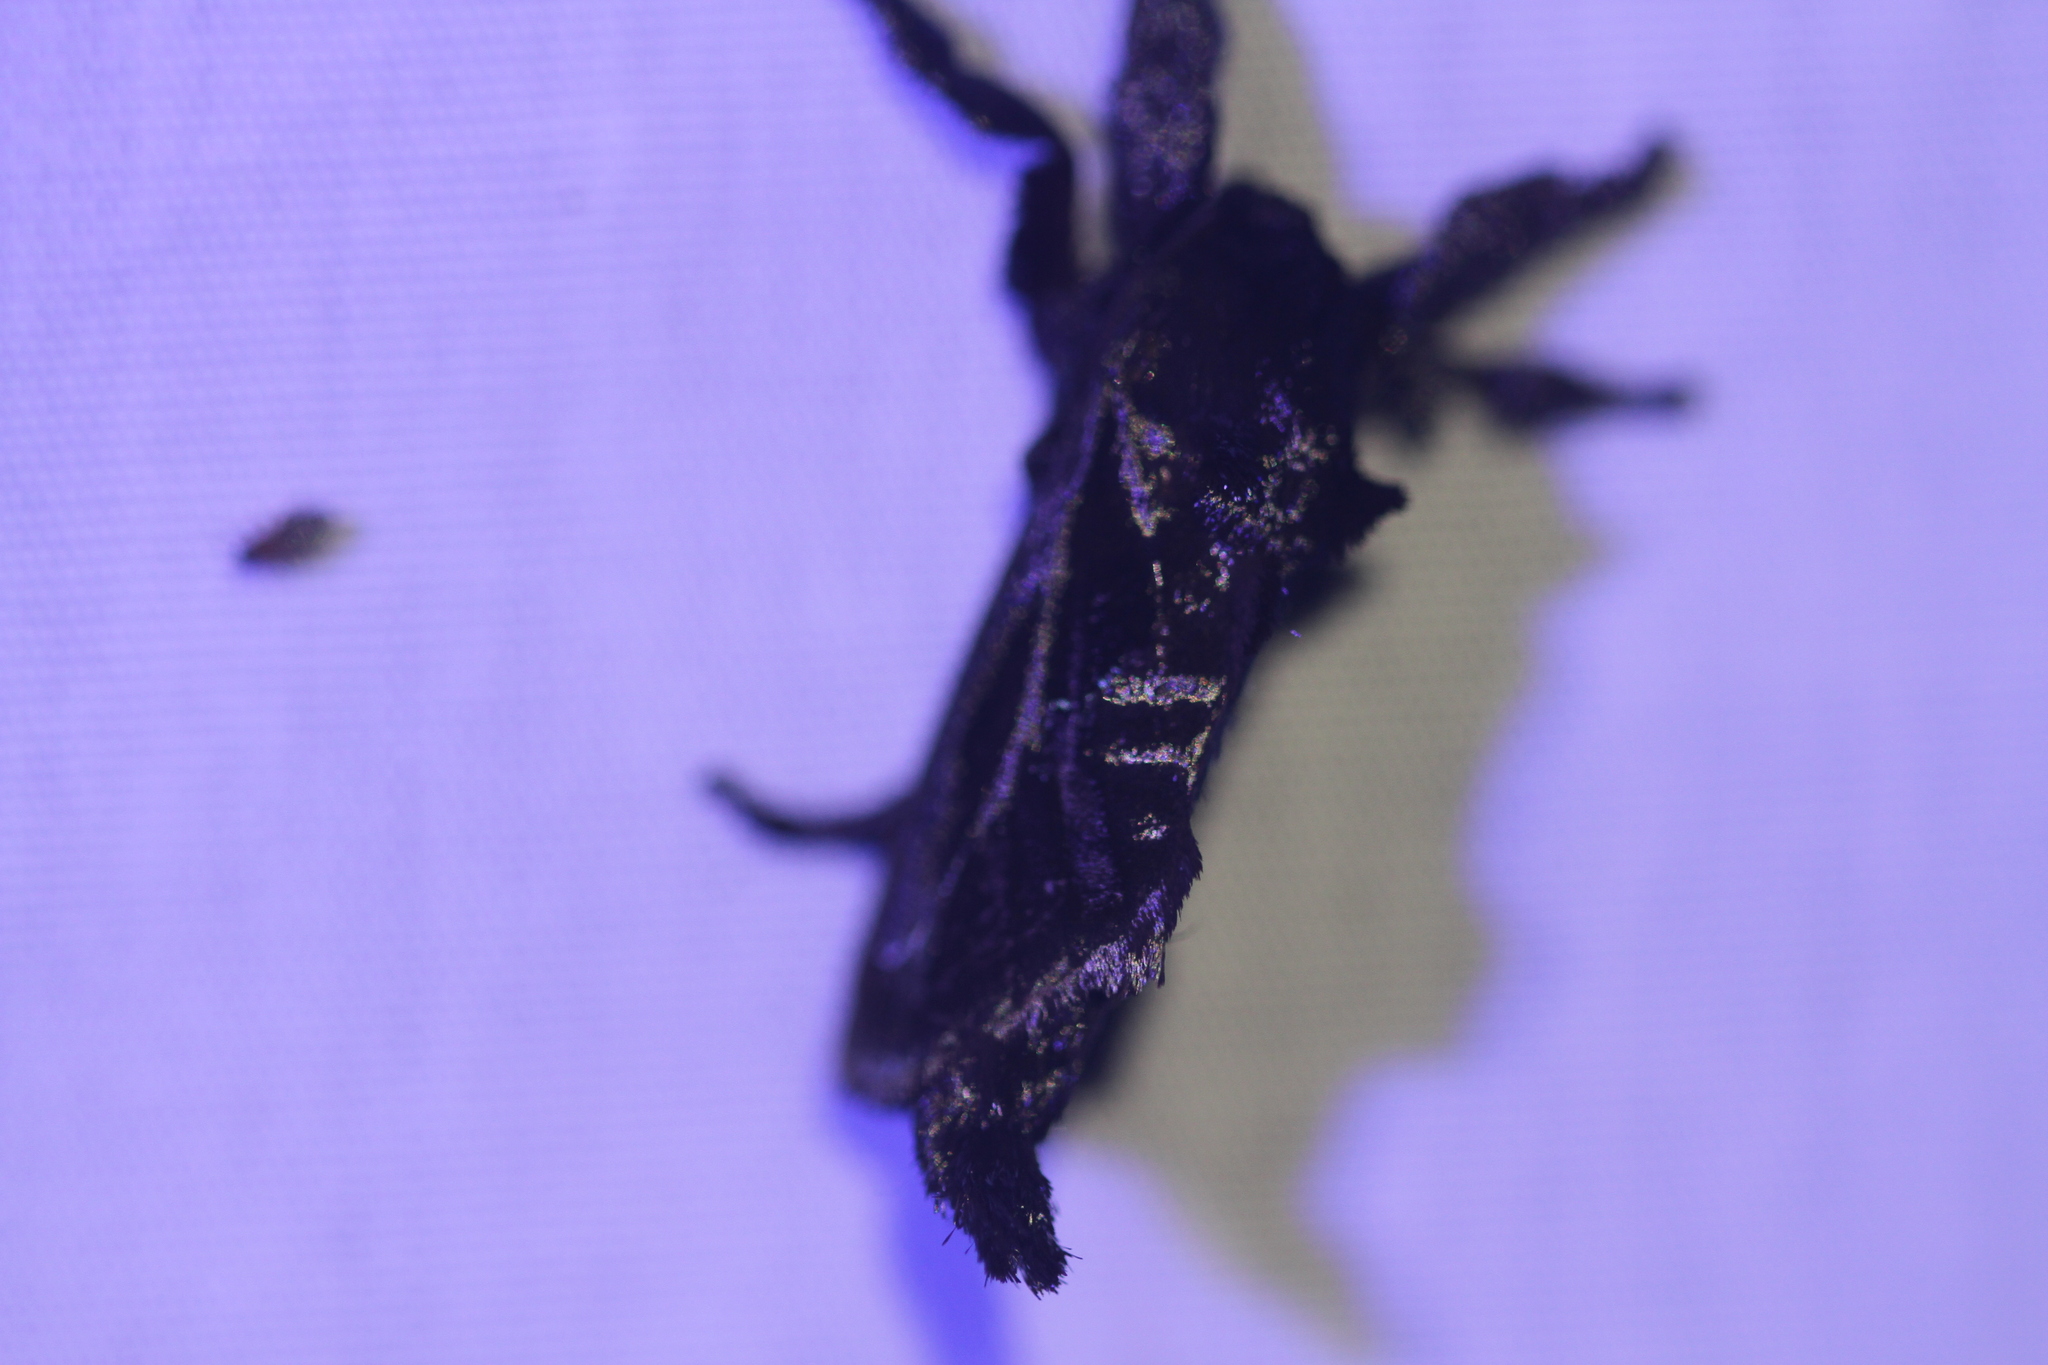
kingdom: Animalia
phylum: Arthropoda
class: Insecta
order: Lepidoptera
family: Limacodidae
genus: Sibine
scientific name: Sibine nesea
